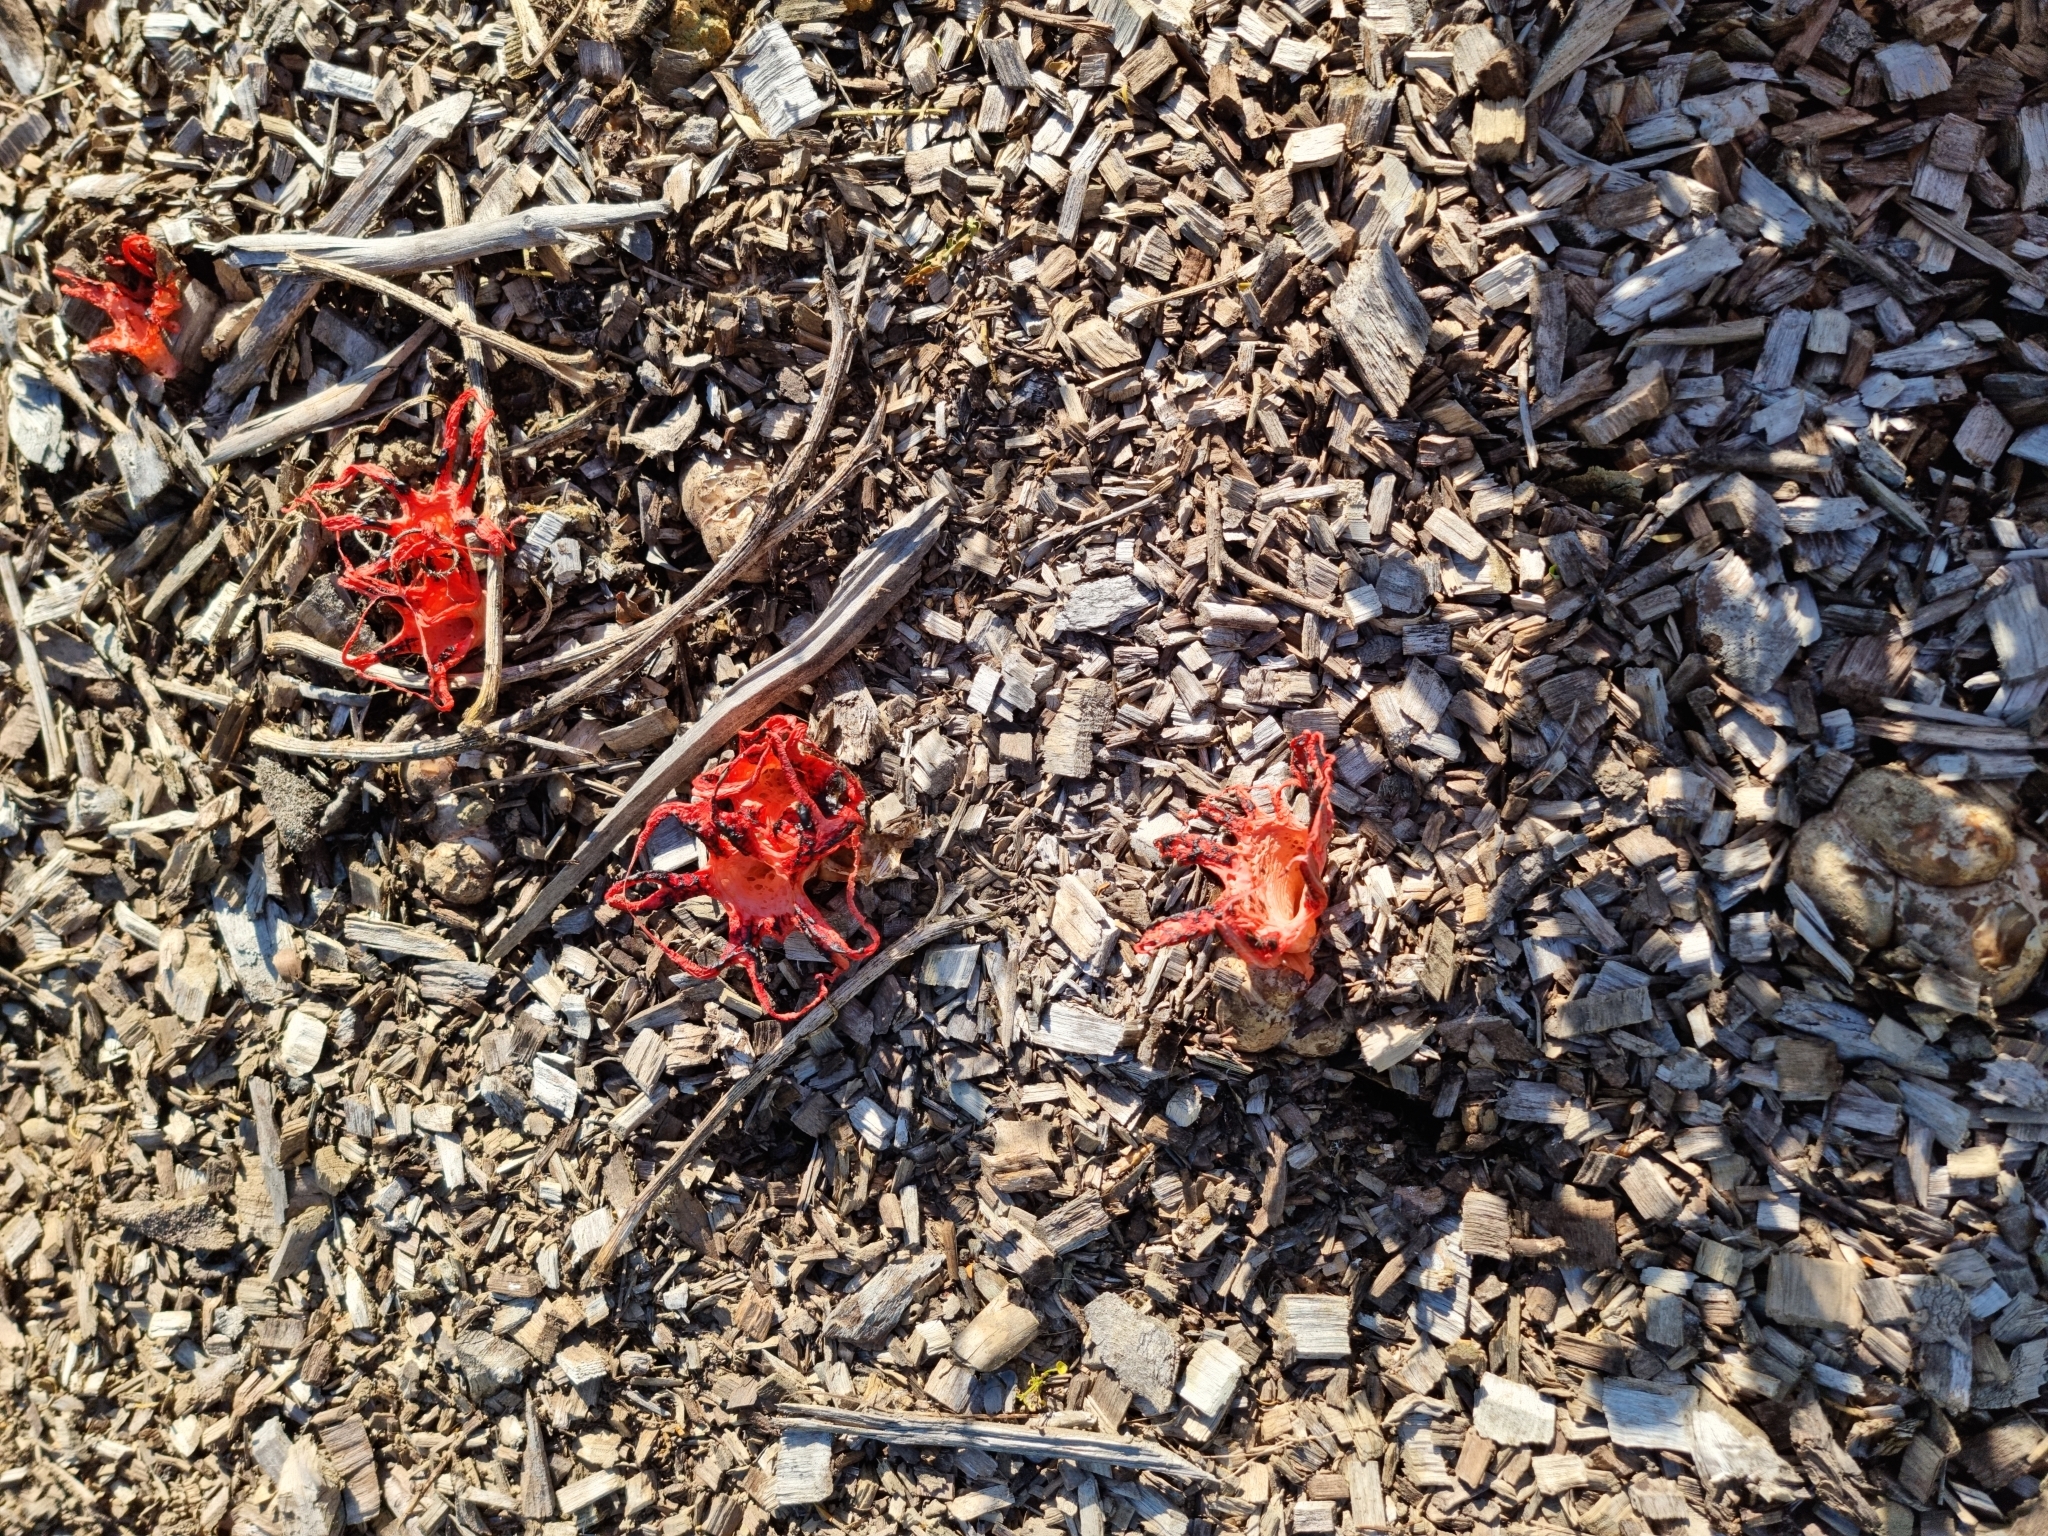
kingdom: Fungi
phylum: Basidiomycota
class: Agaricomycetes
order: Phallales
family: Phallaceae
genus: Clathrus
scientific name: Clathrus archeri
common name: Devil's fingers
